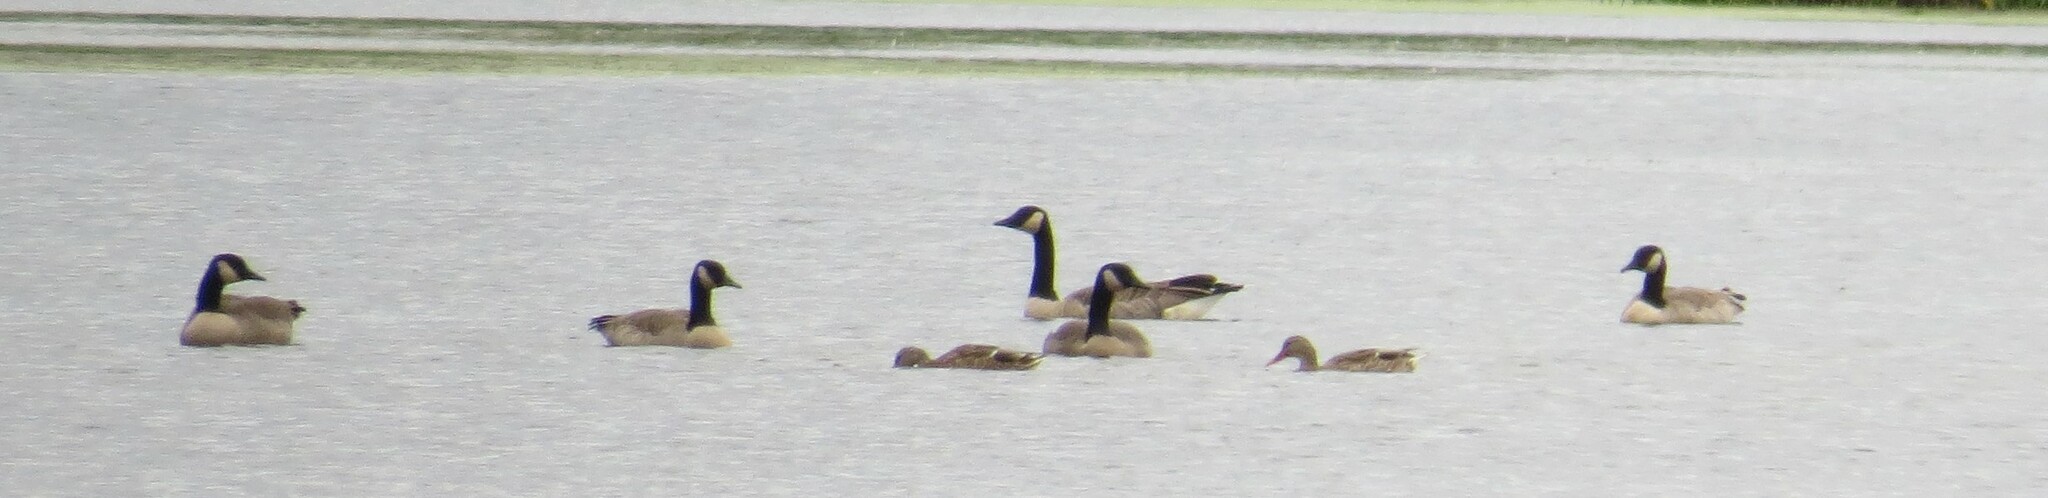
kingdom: Animalia
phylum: Chordata
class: Aves
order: Anseriformes
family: Anatidae
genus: Branta
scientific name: Branta canadensis
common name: Canada goose
